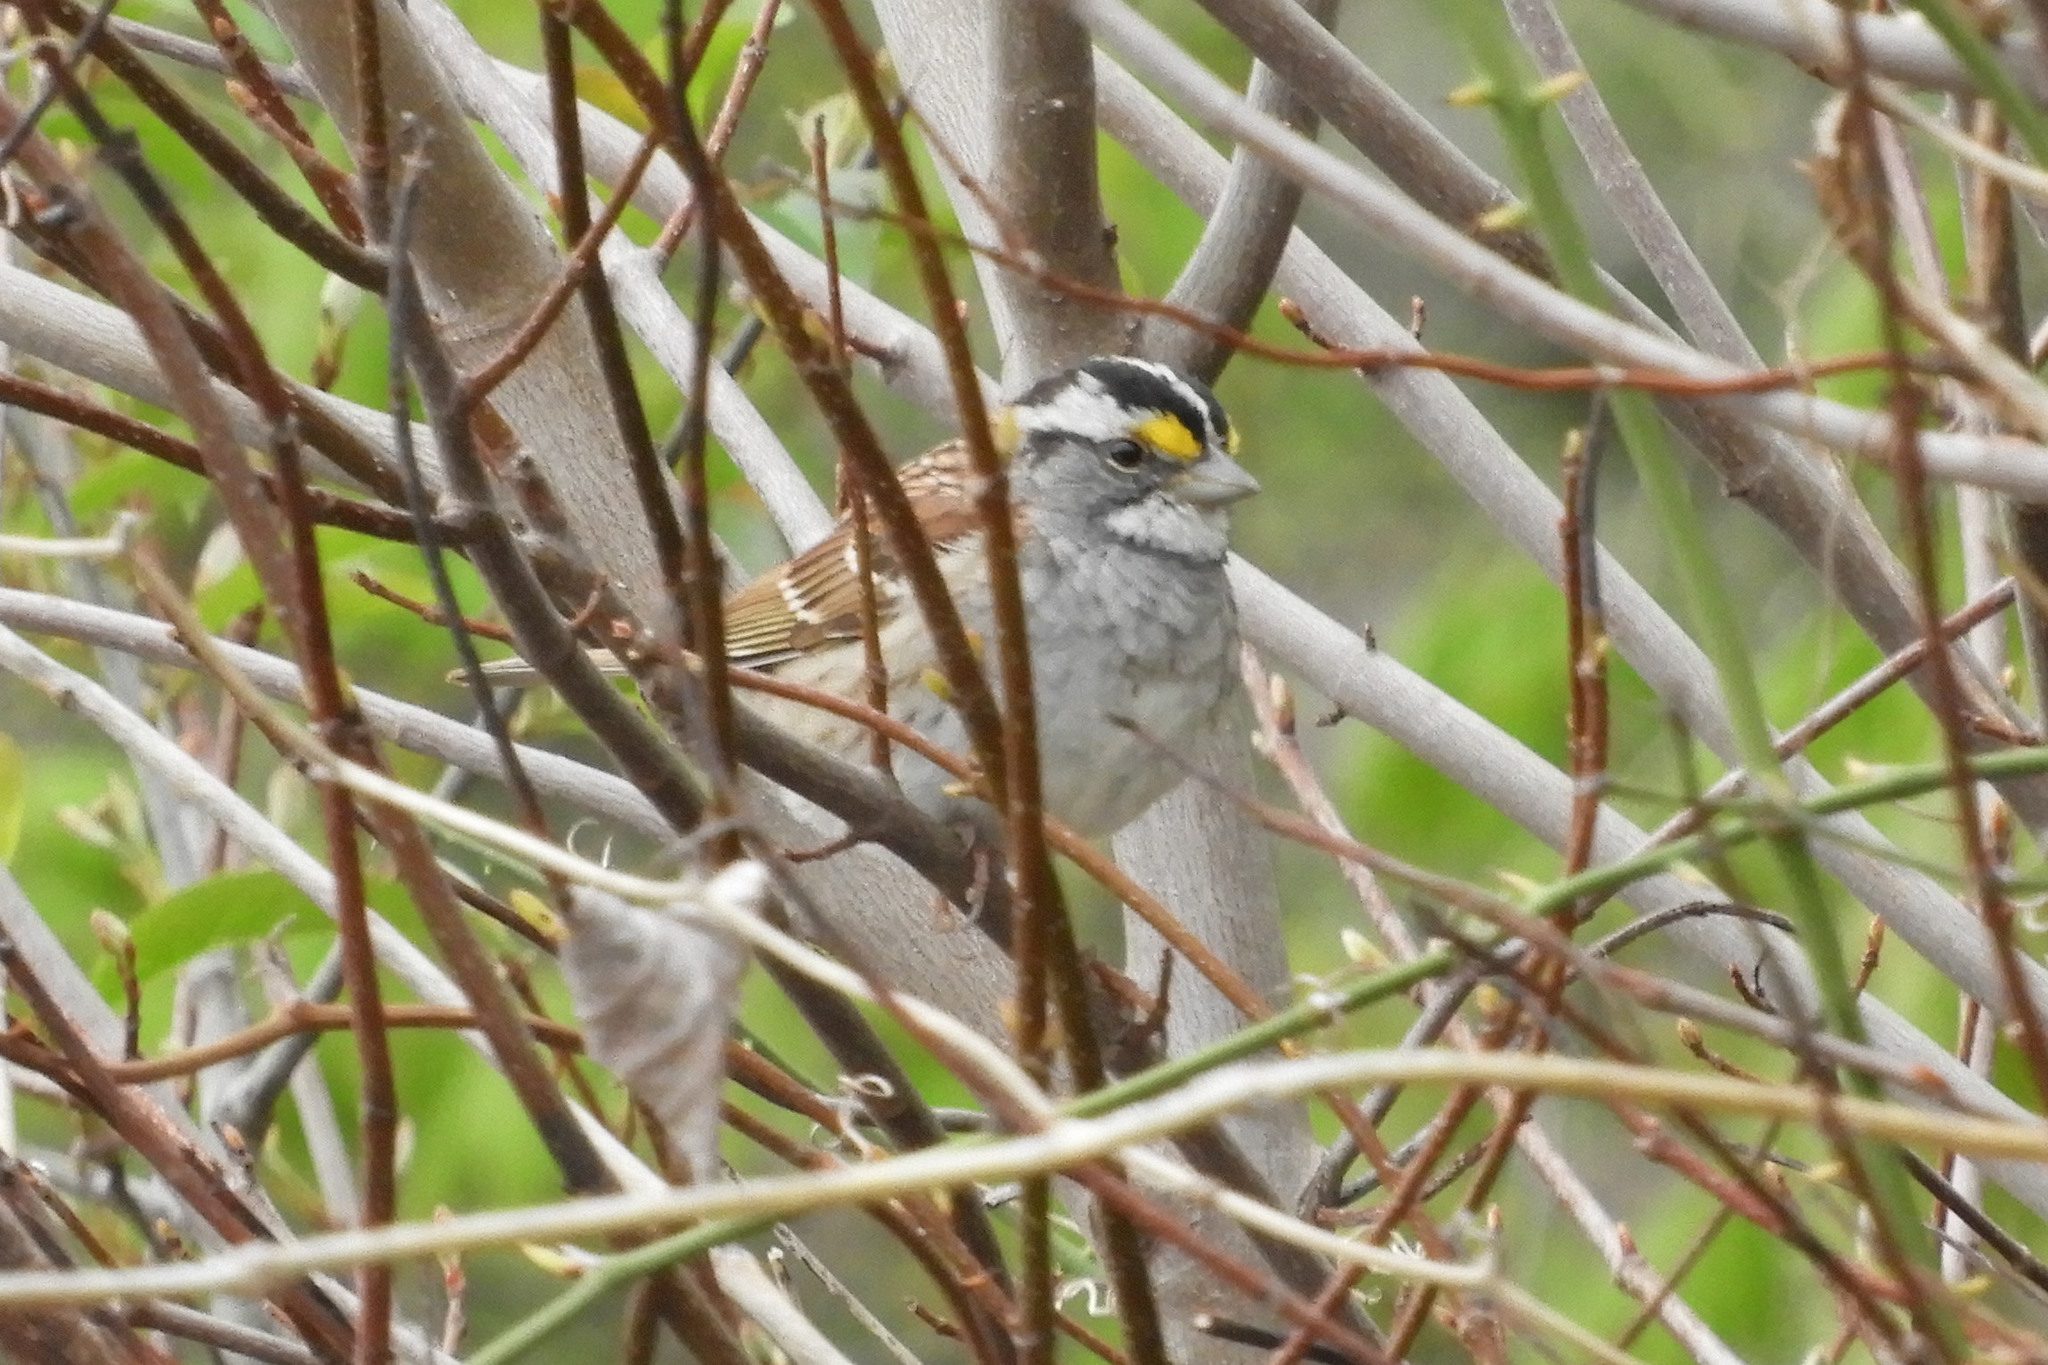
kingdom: Animalia
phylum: Chordata
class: Aves
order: Passeriformes
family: Passerellidae
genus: Zonotrichia
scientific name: Zonotrichia albicollis
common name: White-throated sparrow
